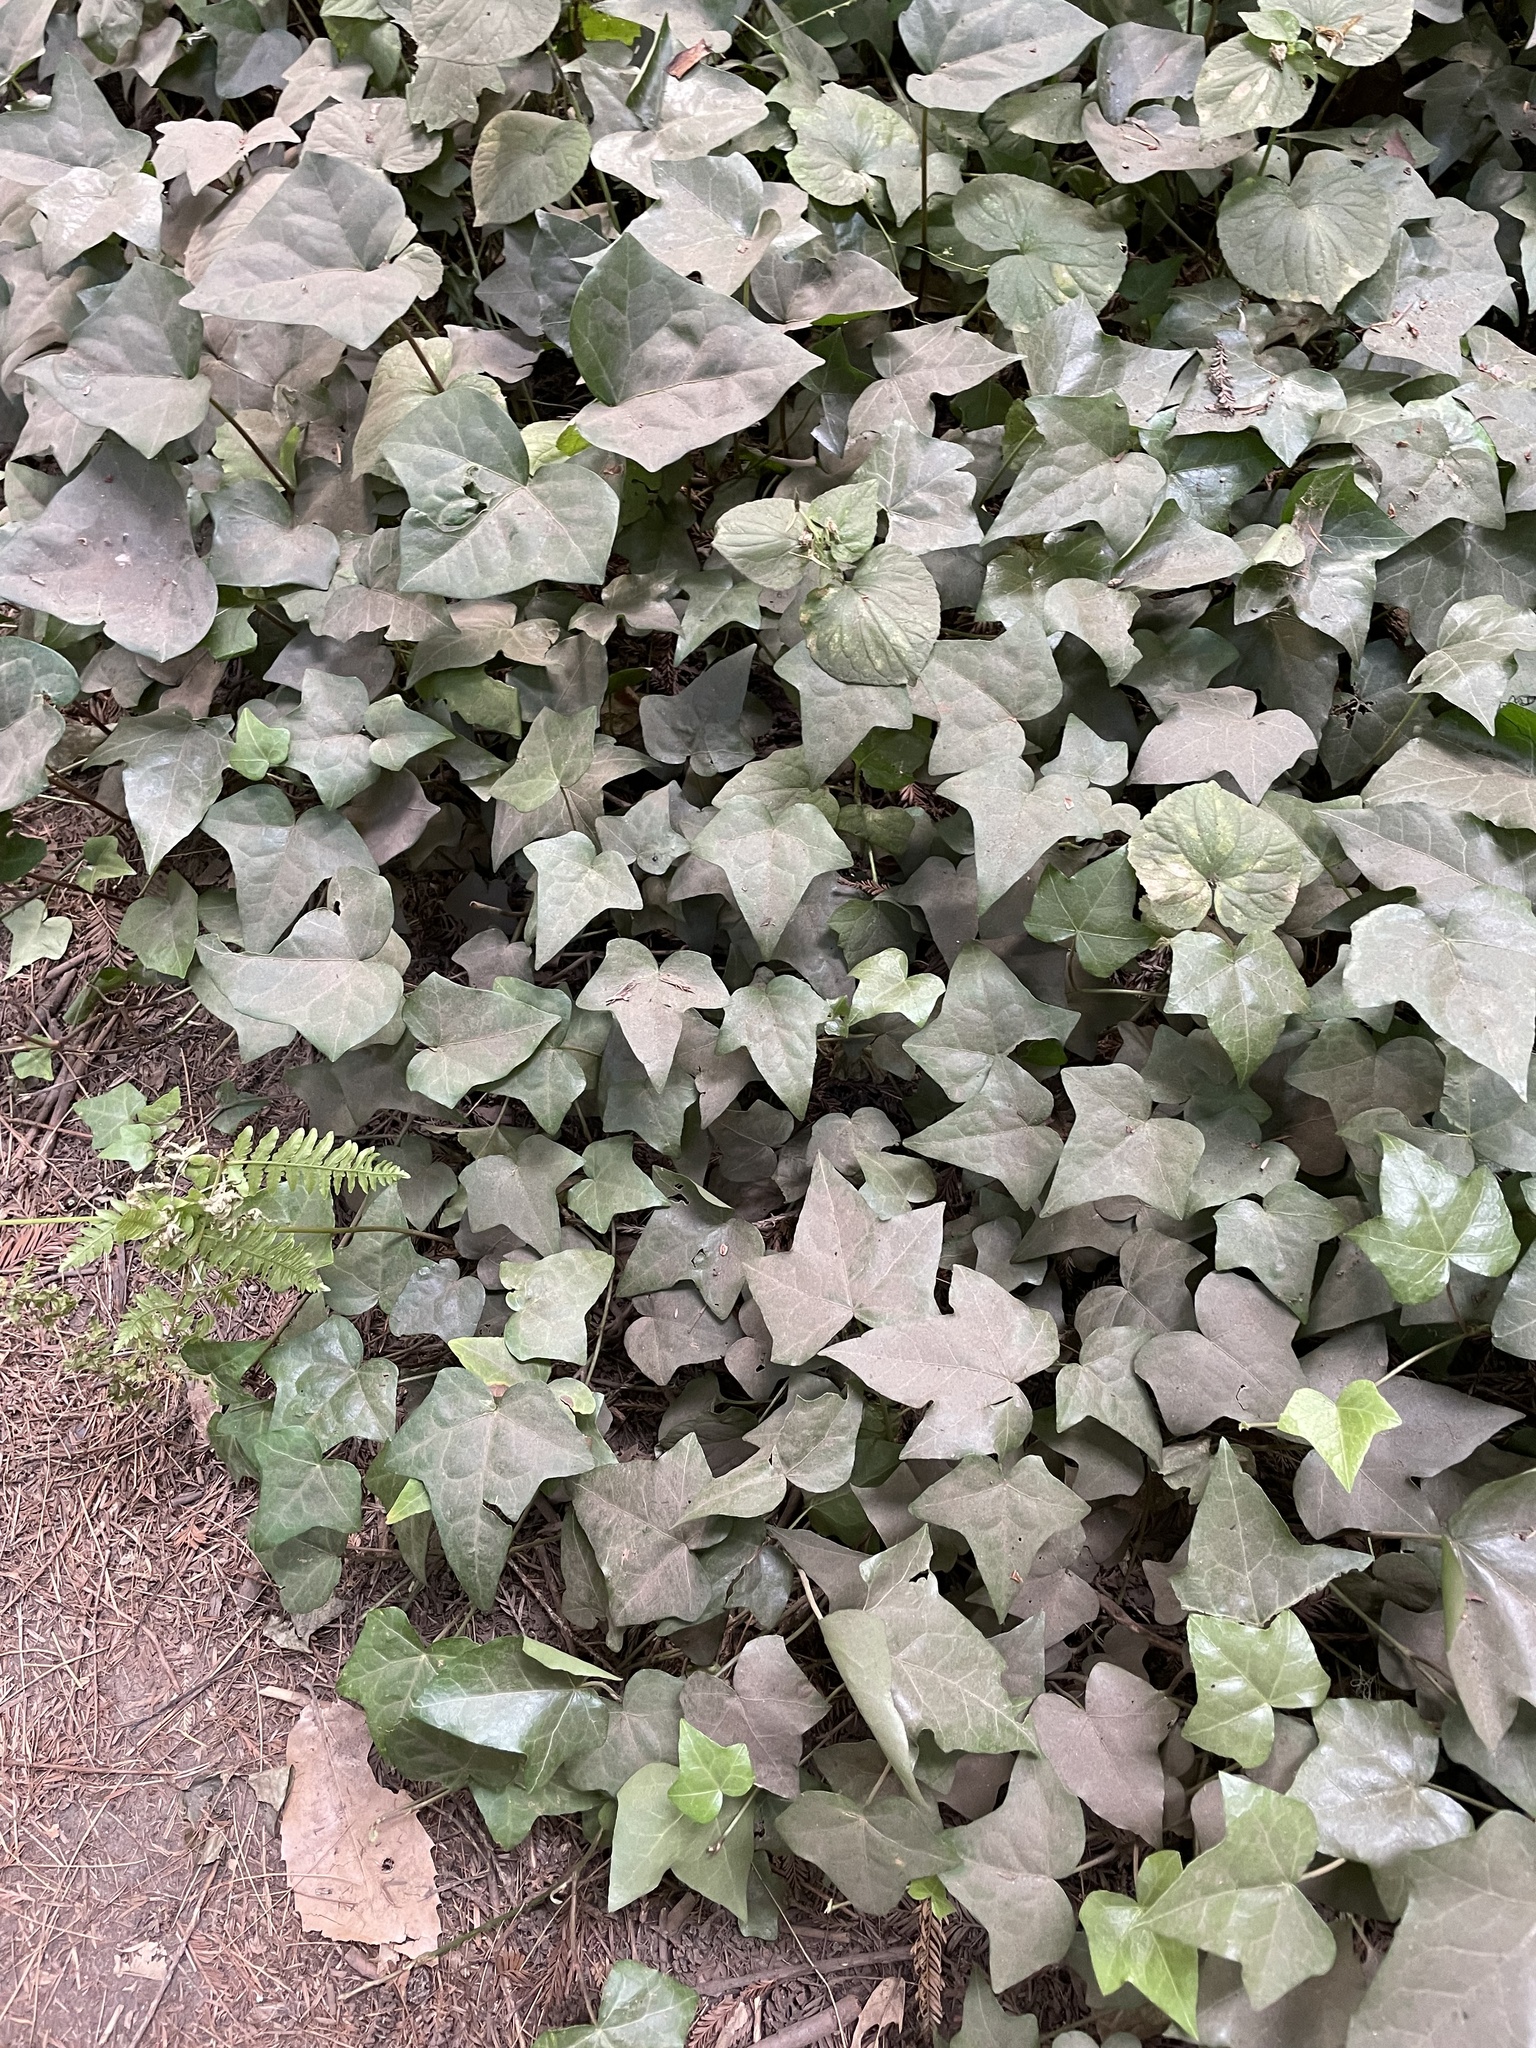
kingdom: Plantae
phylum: Tracheophyta
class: Magnoliopsida
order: Apiales
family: Araliaceae
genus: Hedera
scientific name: Hedera helix
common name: Ivy
